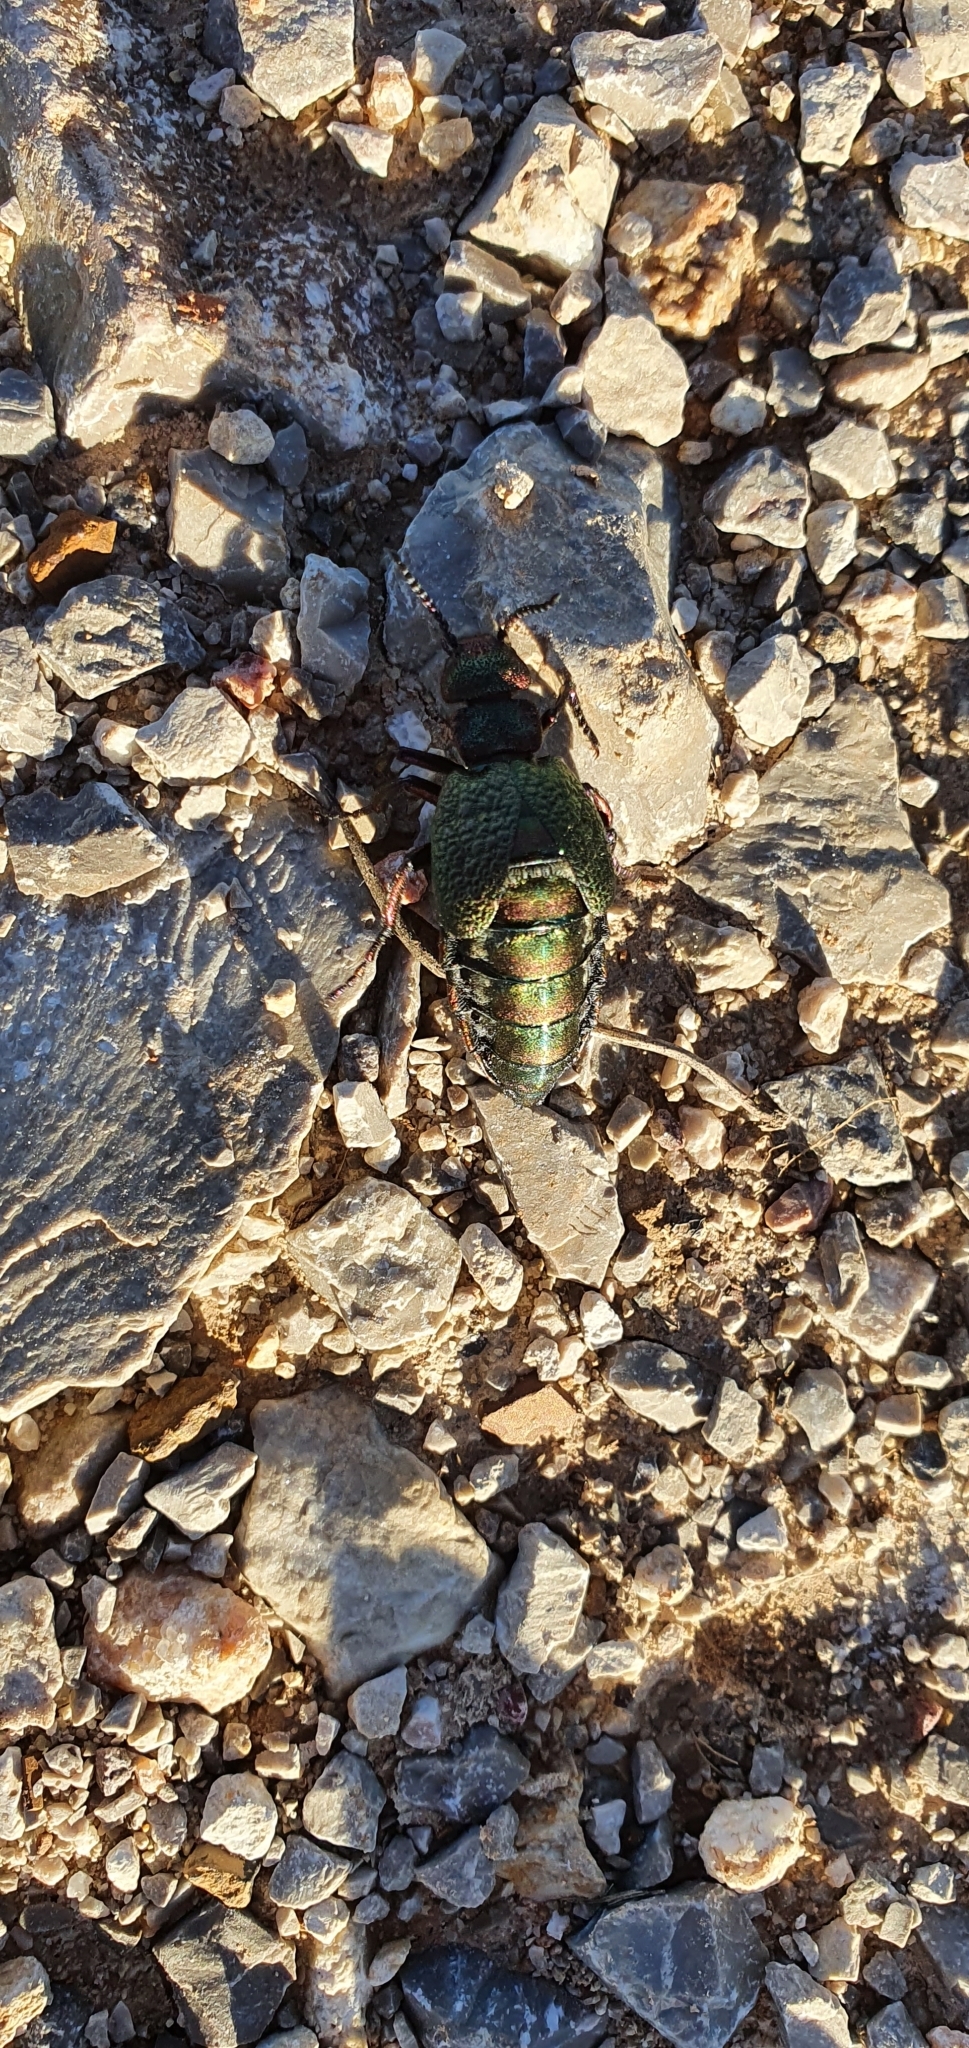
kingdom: Animalia
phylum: Arthropoda
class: Insecta
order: Coleoptera
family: Meloidae
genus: Meloe
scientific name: Meloe cavensis
